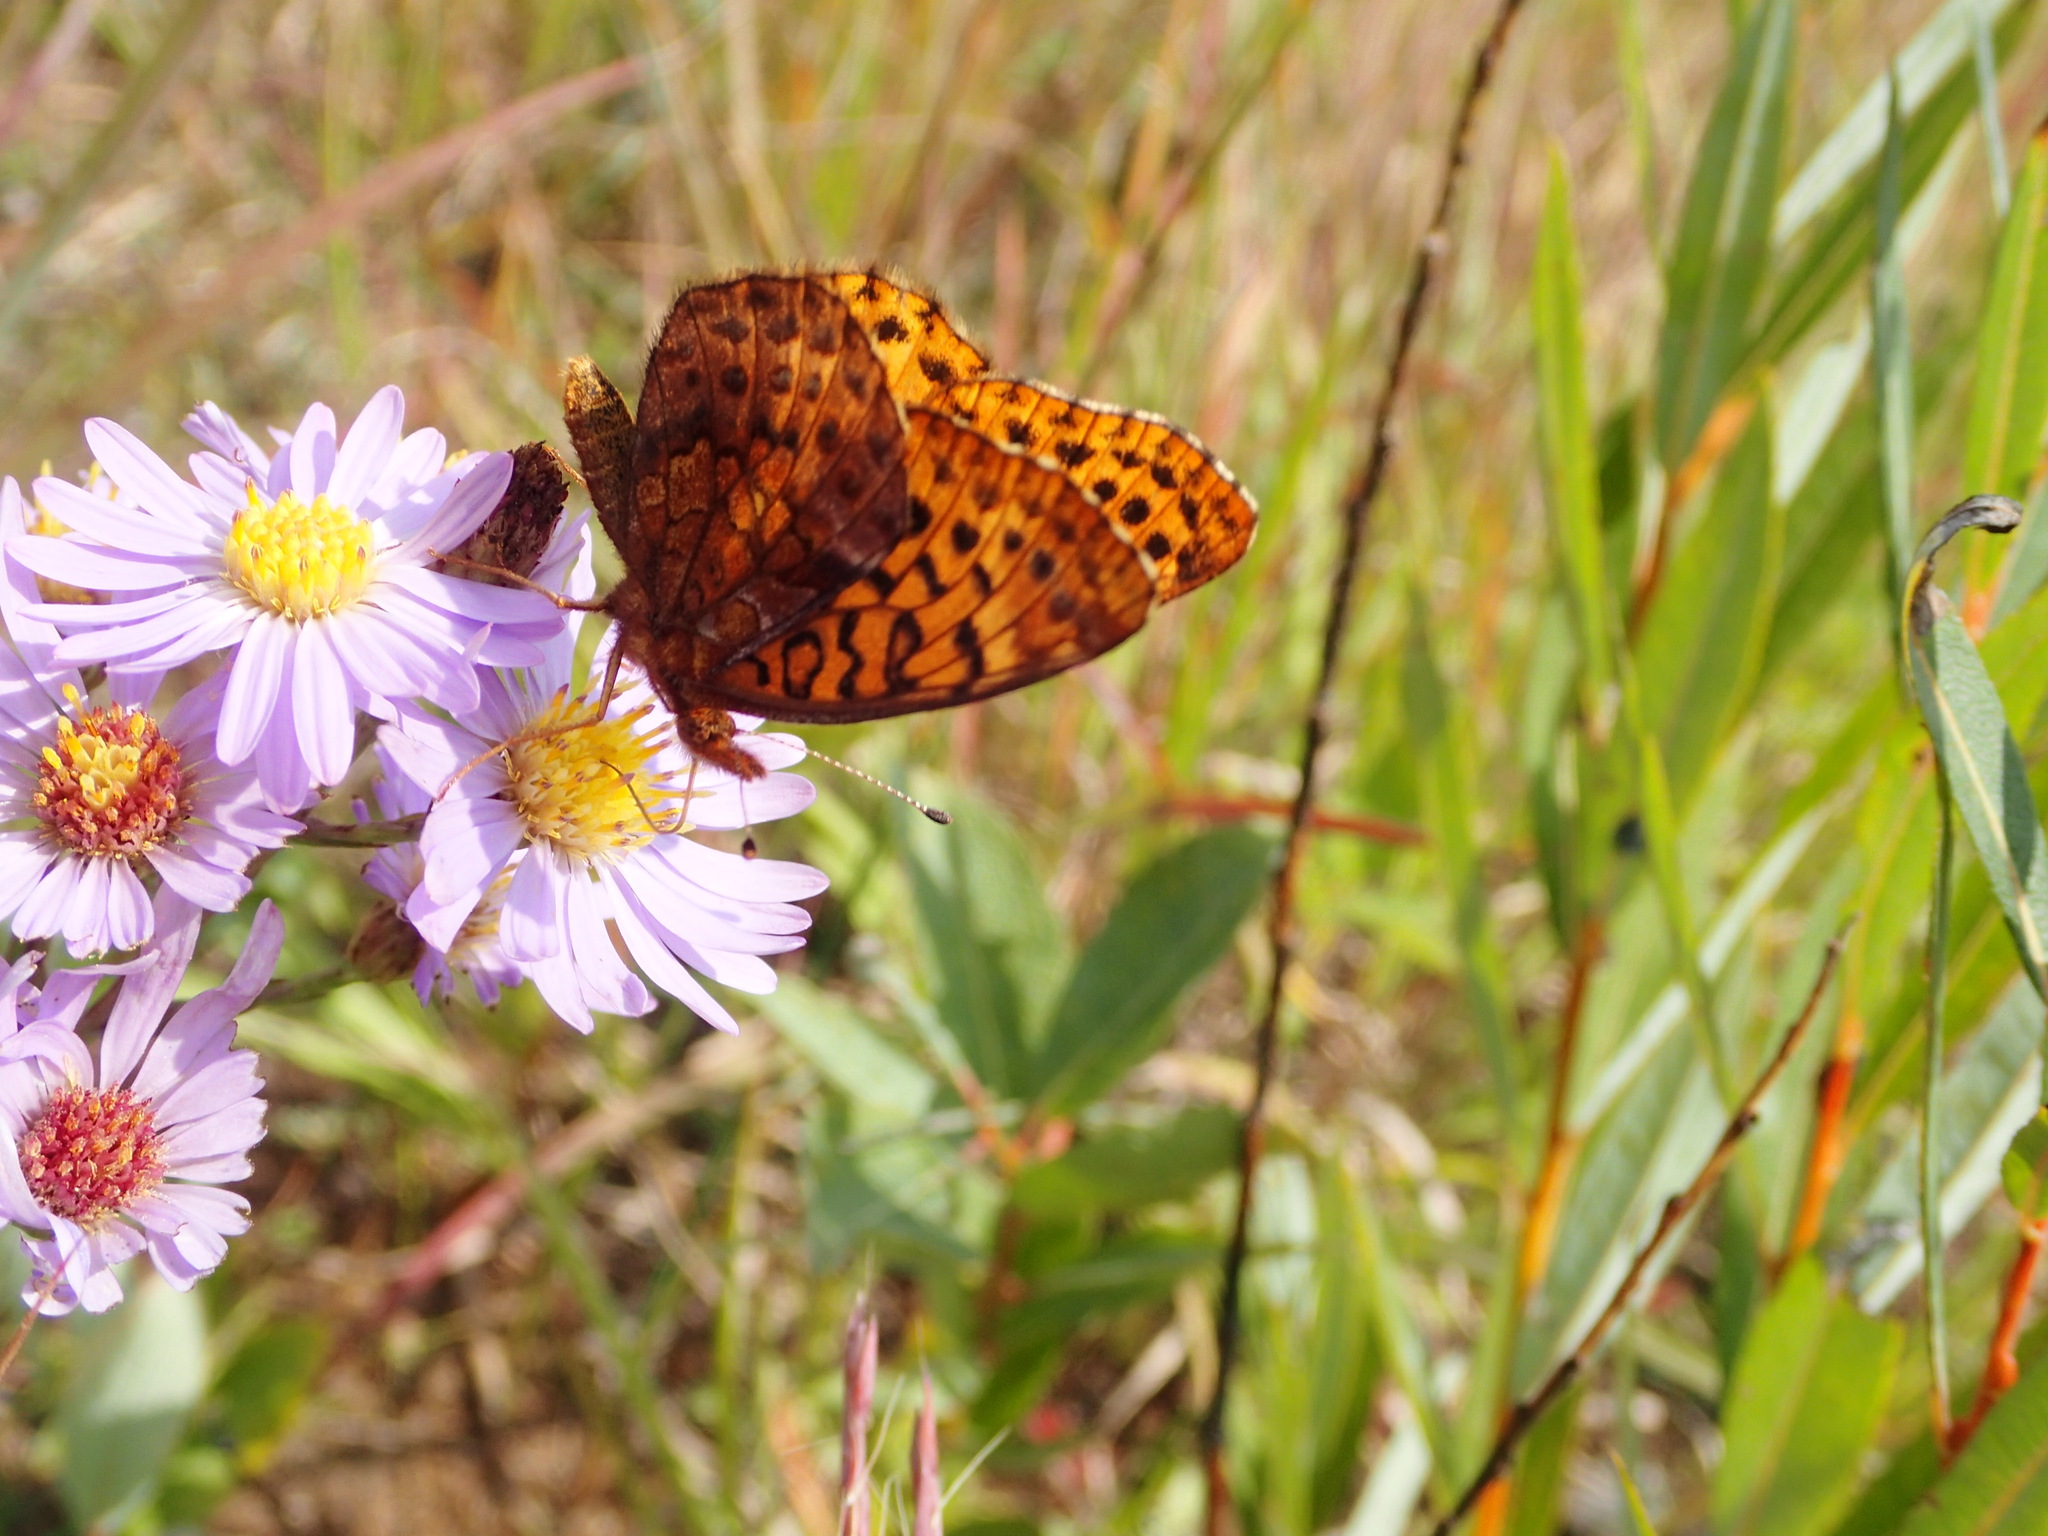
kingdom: Animalia
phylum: Arthropoda
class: Insecta
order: Lepidoptera
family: Nymphalidae
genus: Clossiana
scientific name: Clossiana toddi
